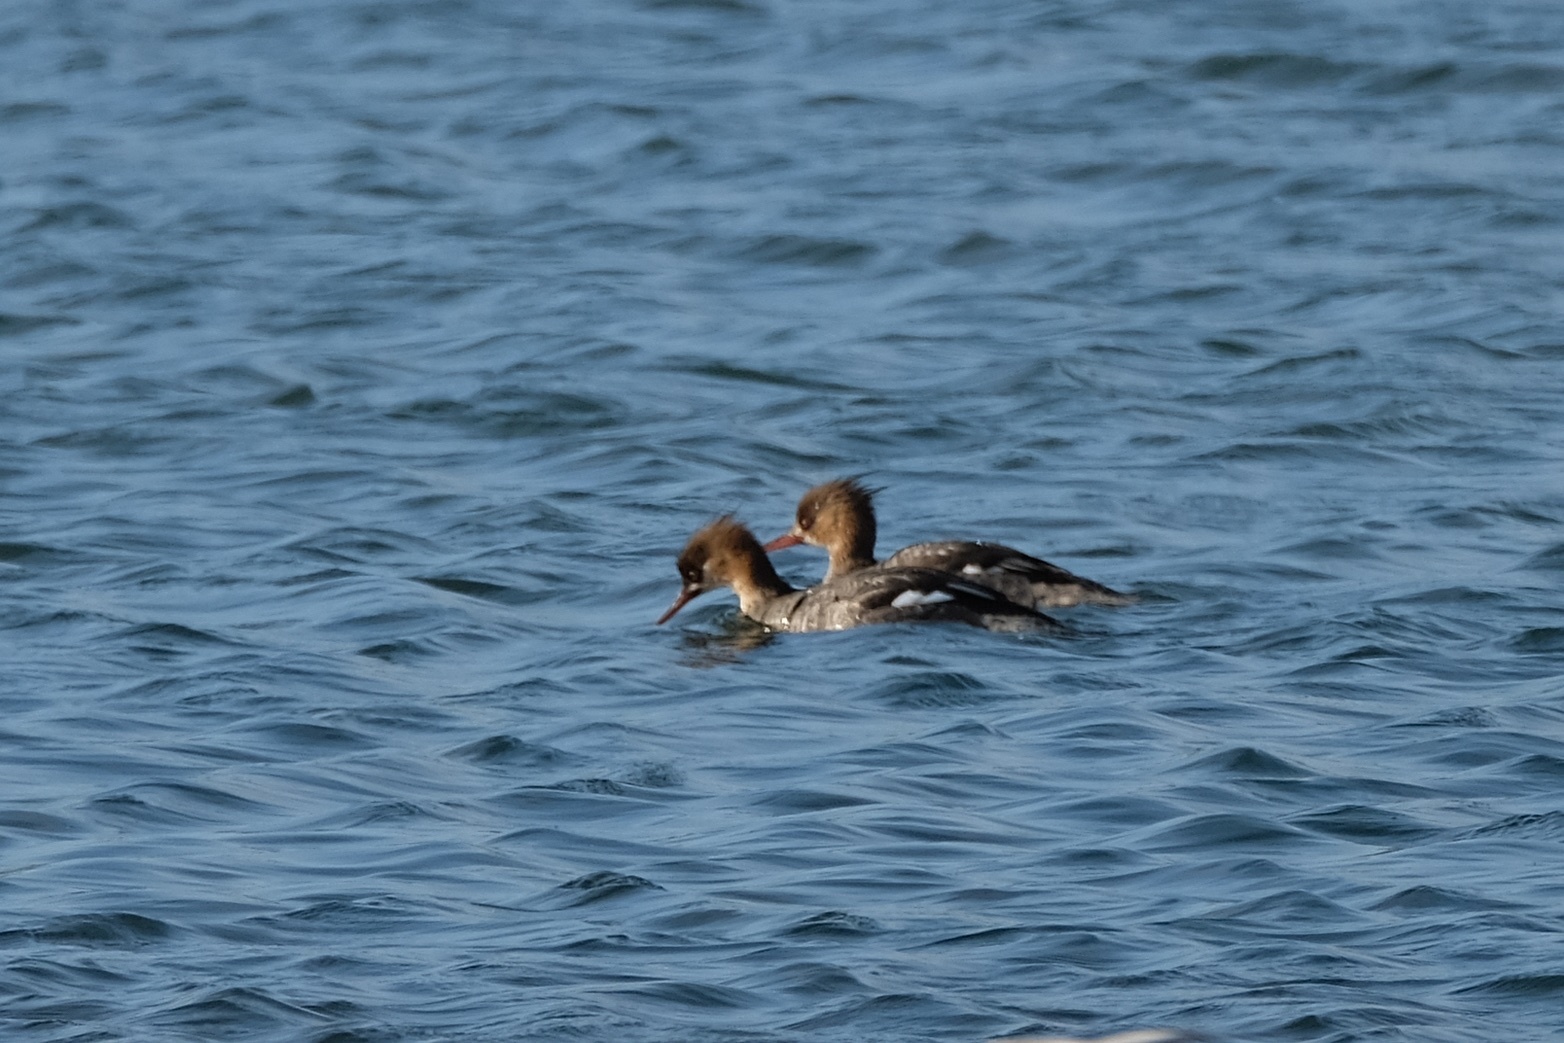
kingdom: Animalia
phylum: Chordata
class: Aves
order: Anseriformes
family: Anatidae
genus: Mergus
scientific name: Mergus serrator
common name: Red-breasted merganser
